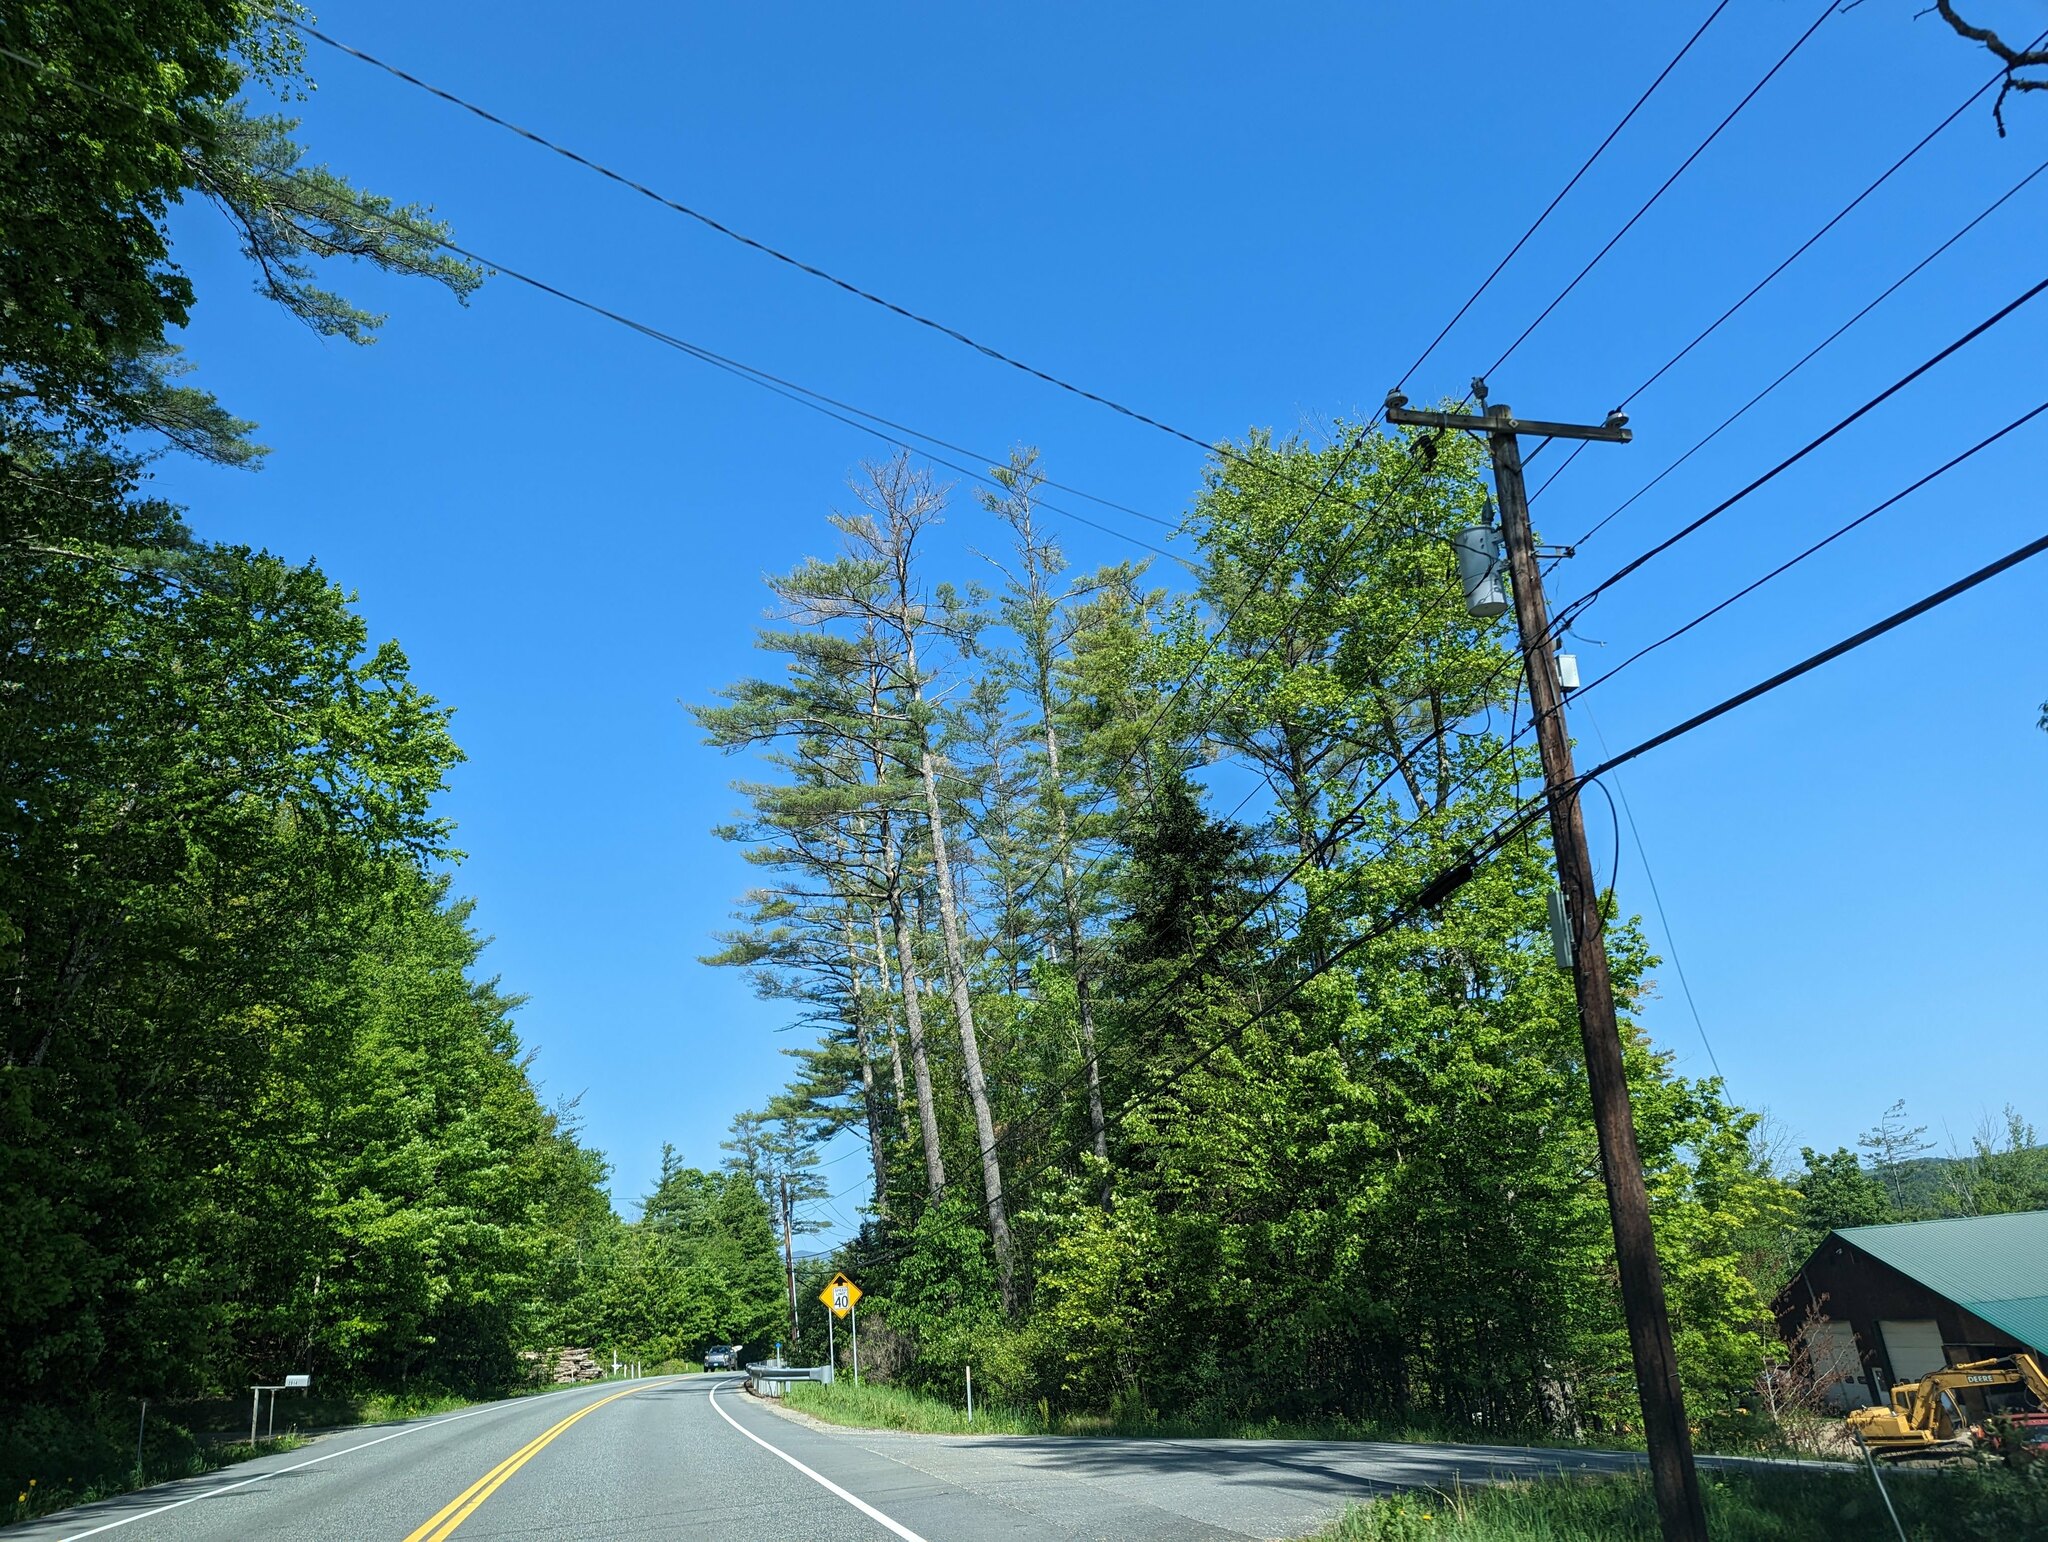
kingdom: Plantae
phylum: Tracheophyta
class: Pinopsida
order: Pinales
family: Pinaceae
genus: Pinus
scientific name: Pinus strobus
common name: Weymouth pine
